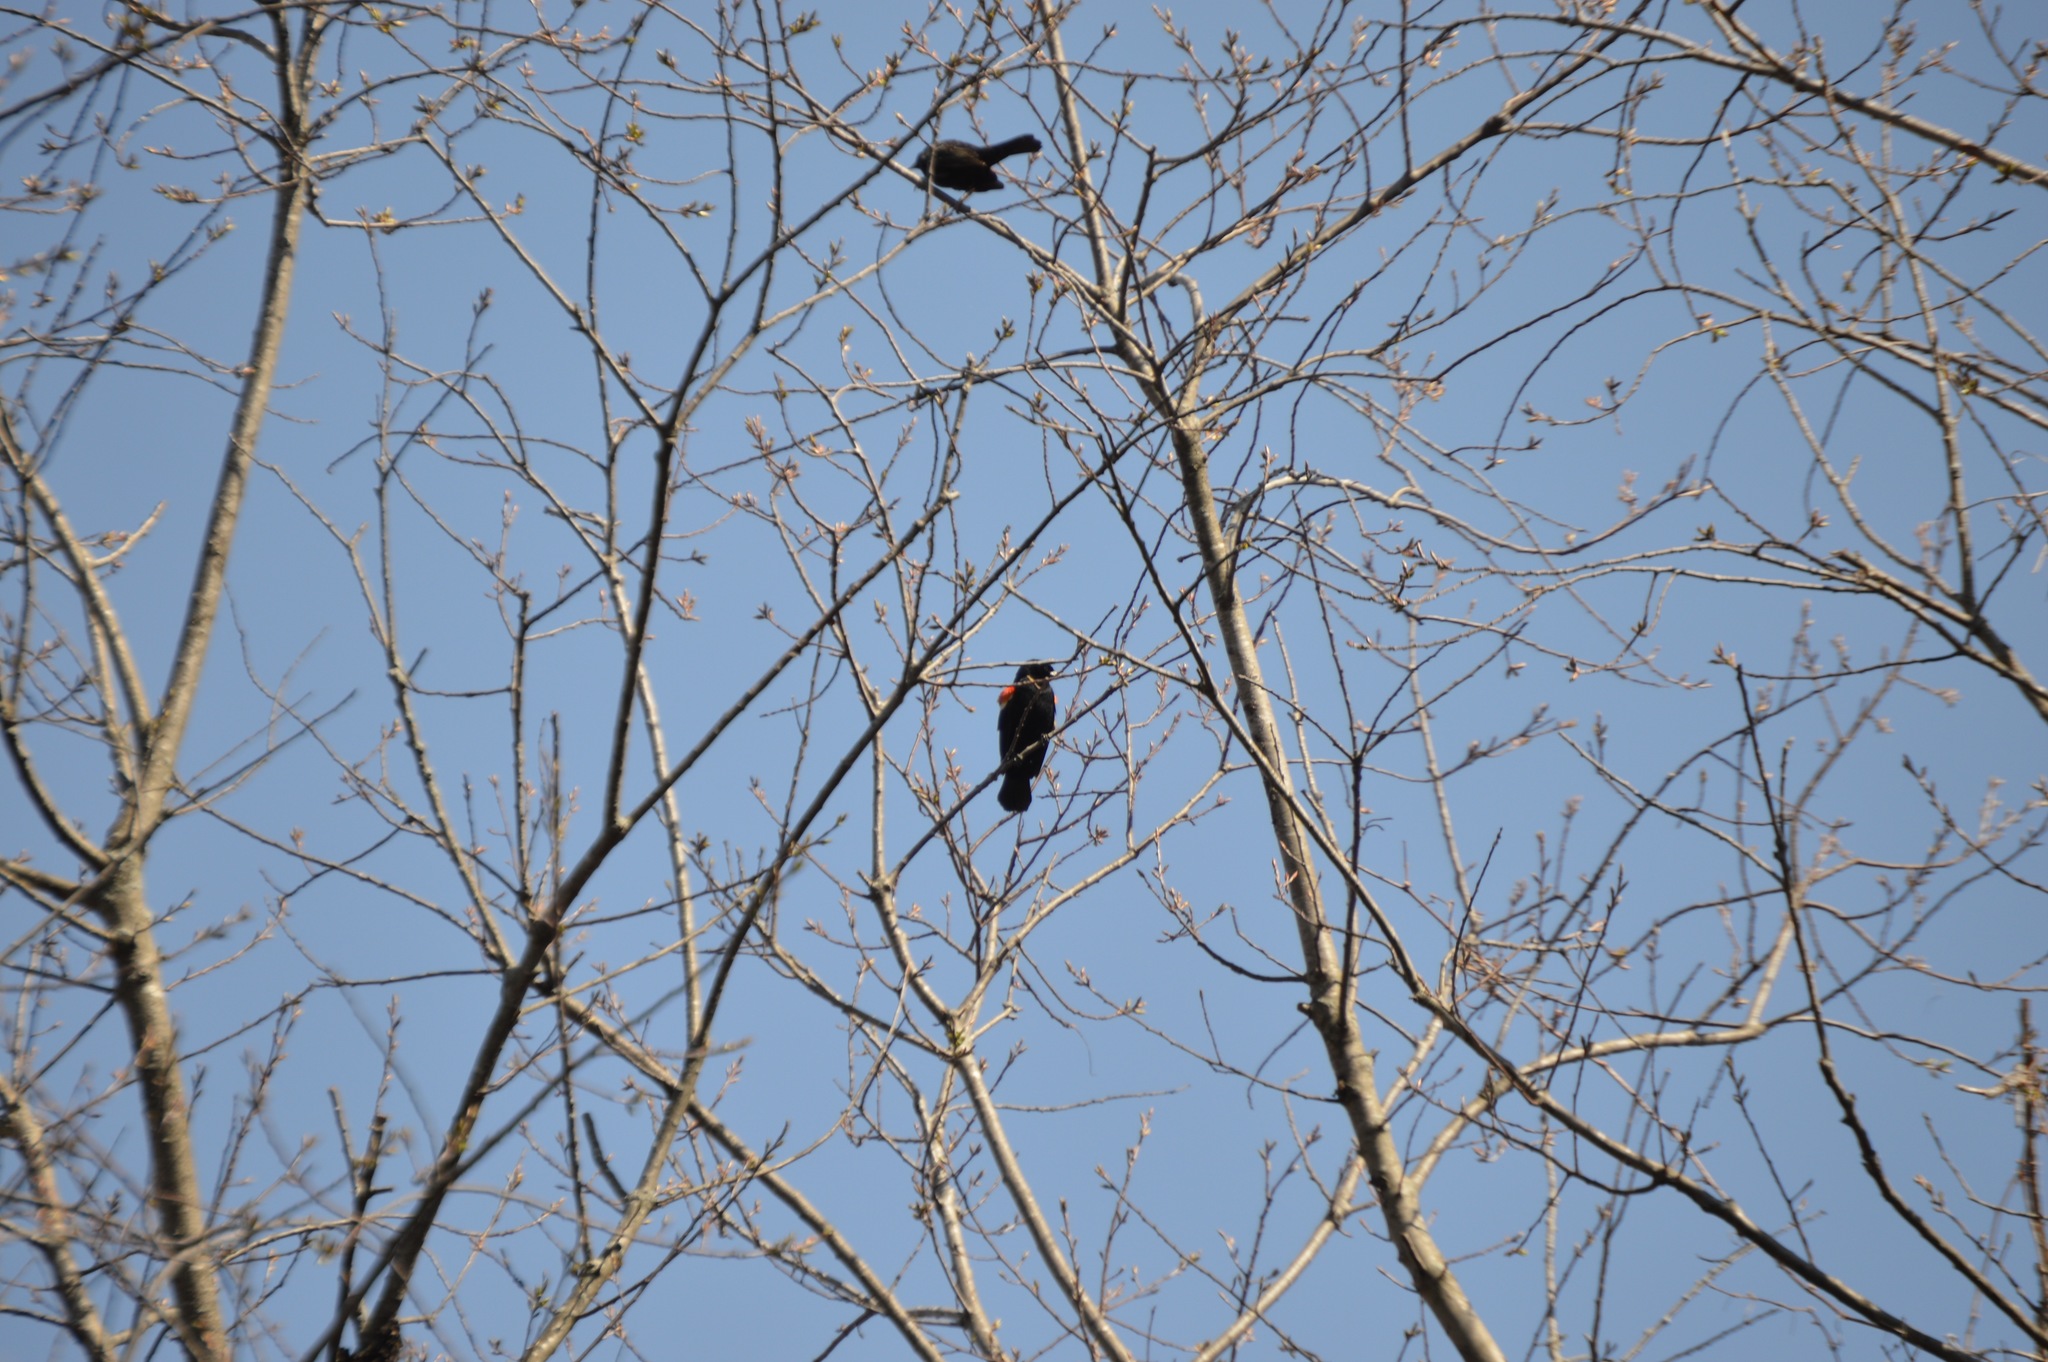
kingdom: Animalia
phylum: Chordata
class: Aves
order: Passeriformes
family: Icteridae
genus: Agelaius
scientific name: Agelaius phoeniceus
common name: Red-winged blackbird
